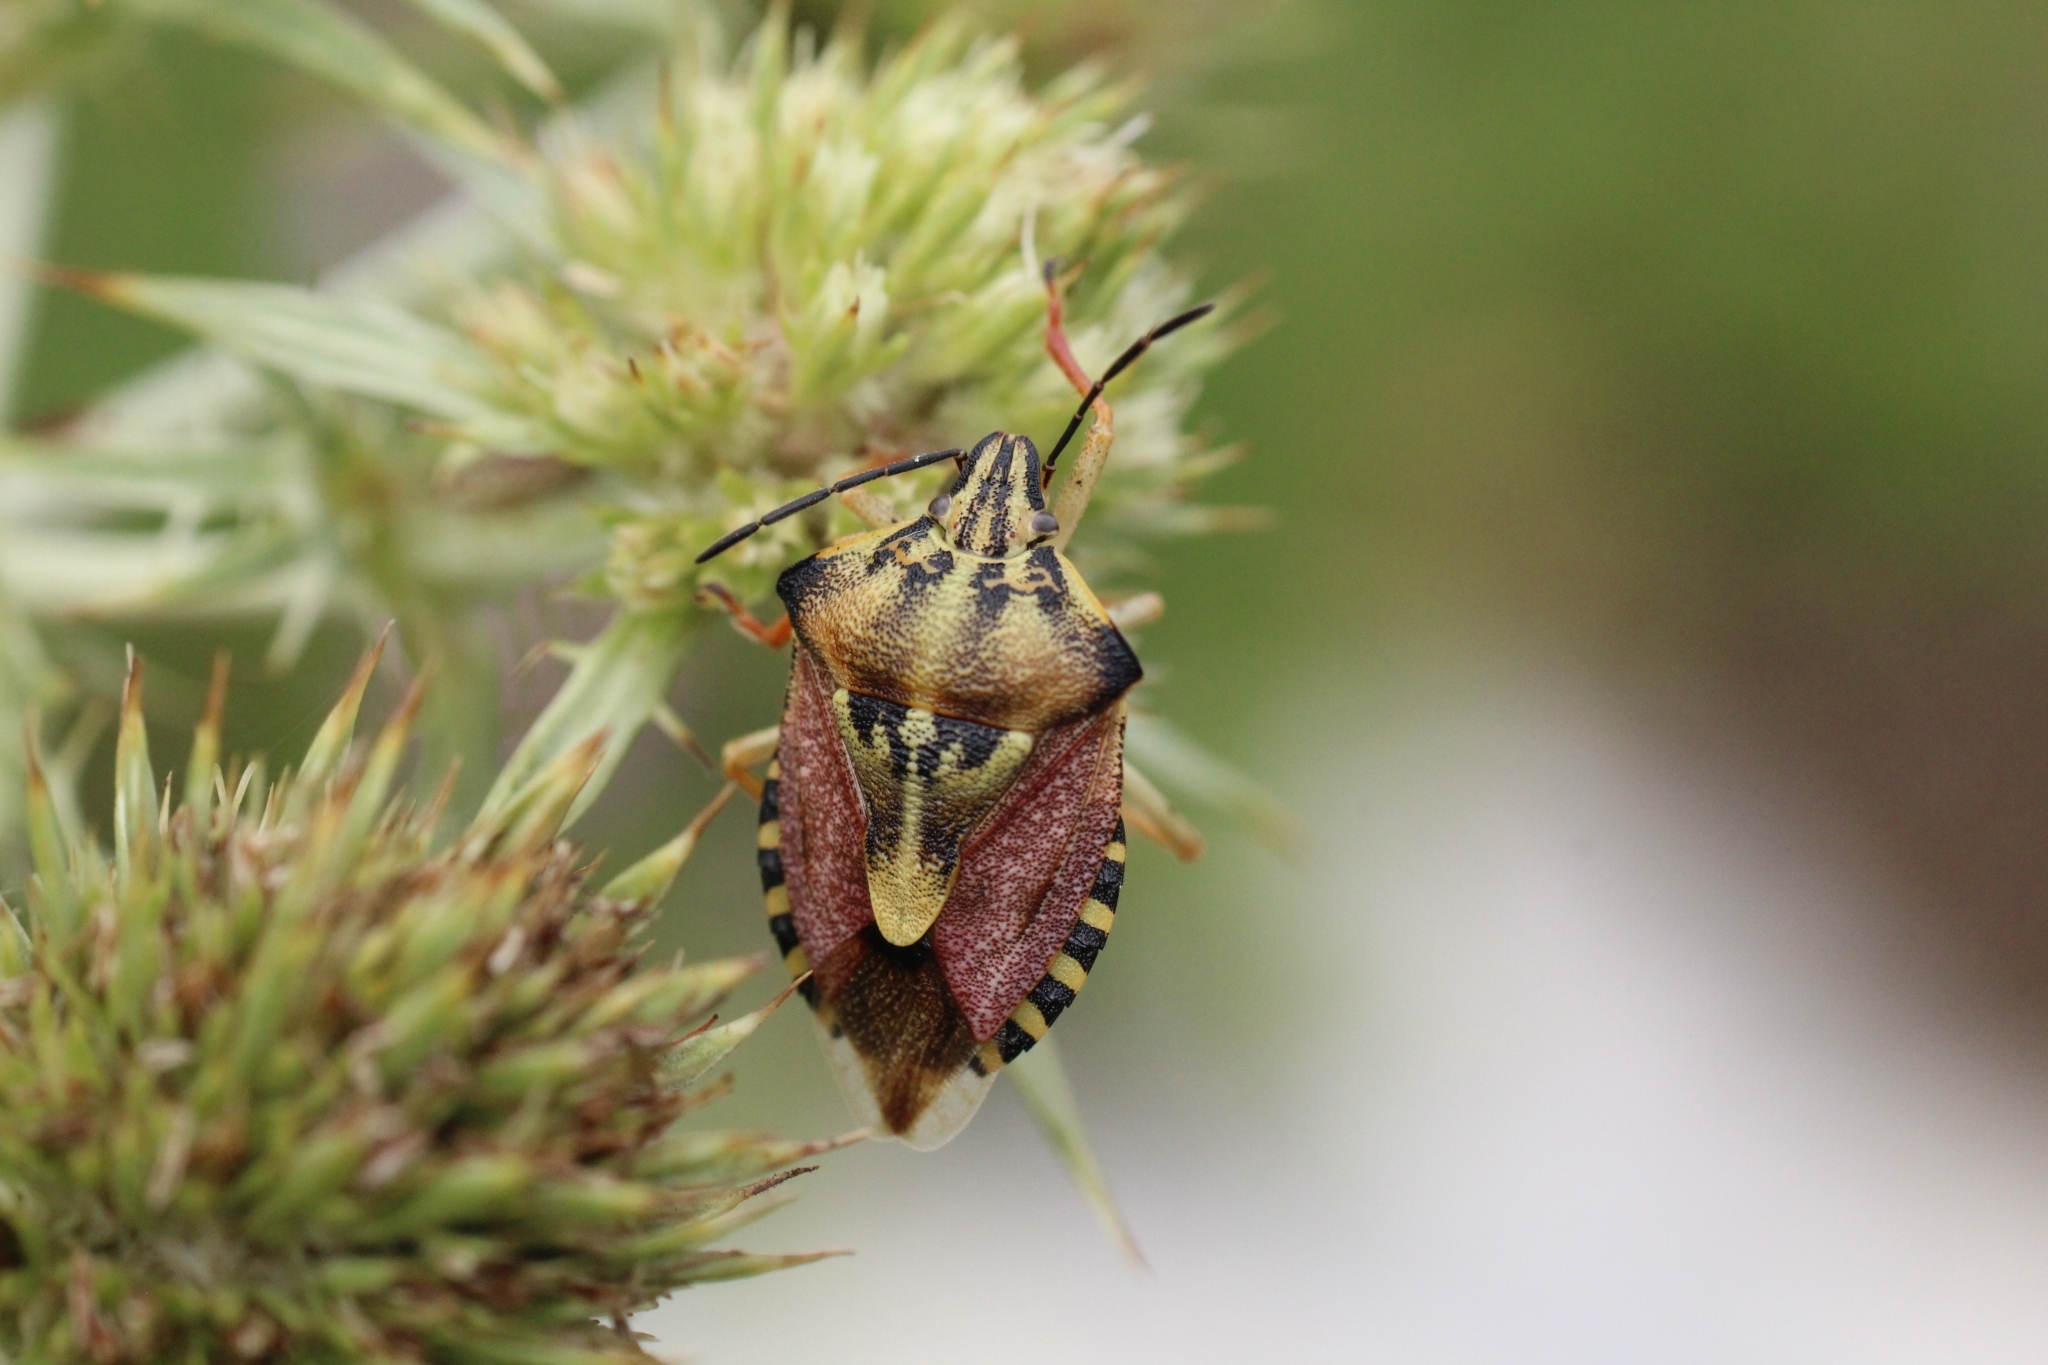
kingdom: Animalia
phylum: Arthropoda
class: Insecta
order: Hemiptera
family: Pentatomidae
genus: Carpocoris
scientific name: Carpocoris purpureipennis
